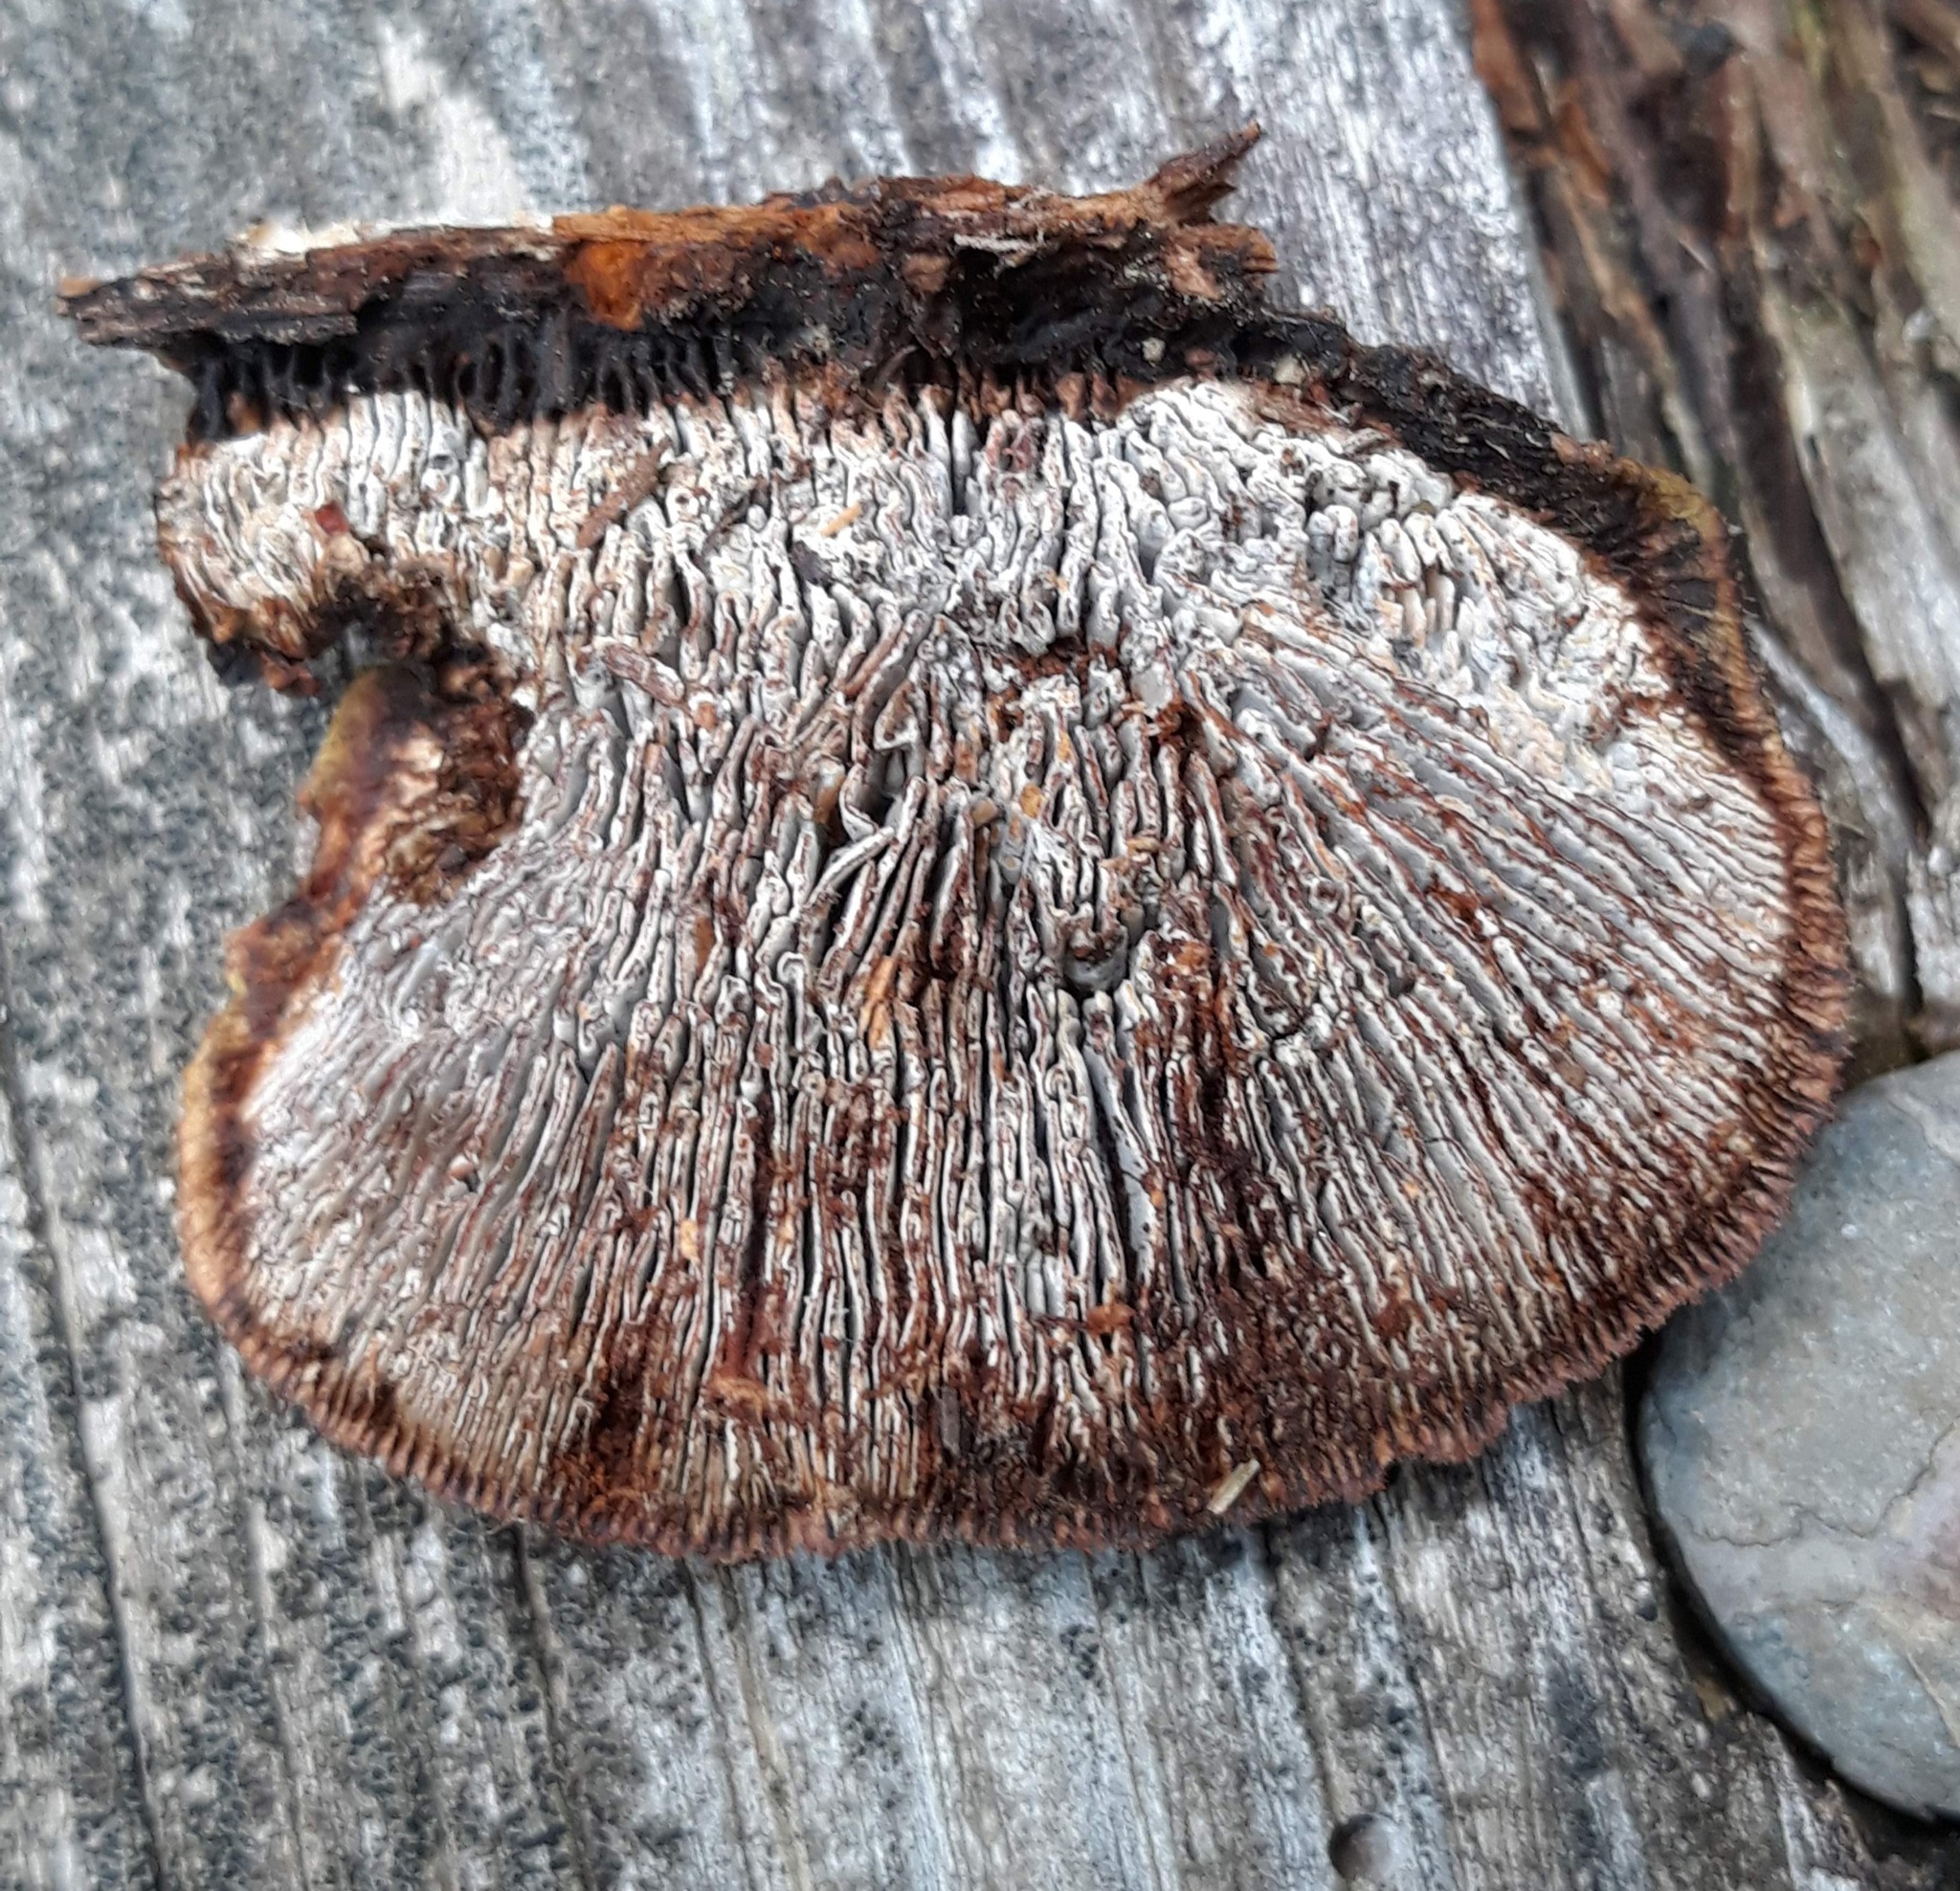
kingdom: Fungi
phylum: Basidiomycota
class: Agaricomycetes
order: Gloeophyllales
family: Gloeophyllaceae
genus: Gloeophyllum
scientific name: Gloeophyllum sepiarium
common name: Conifer mazegill
